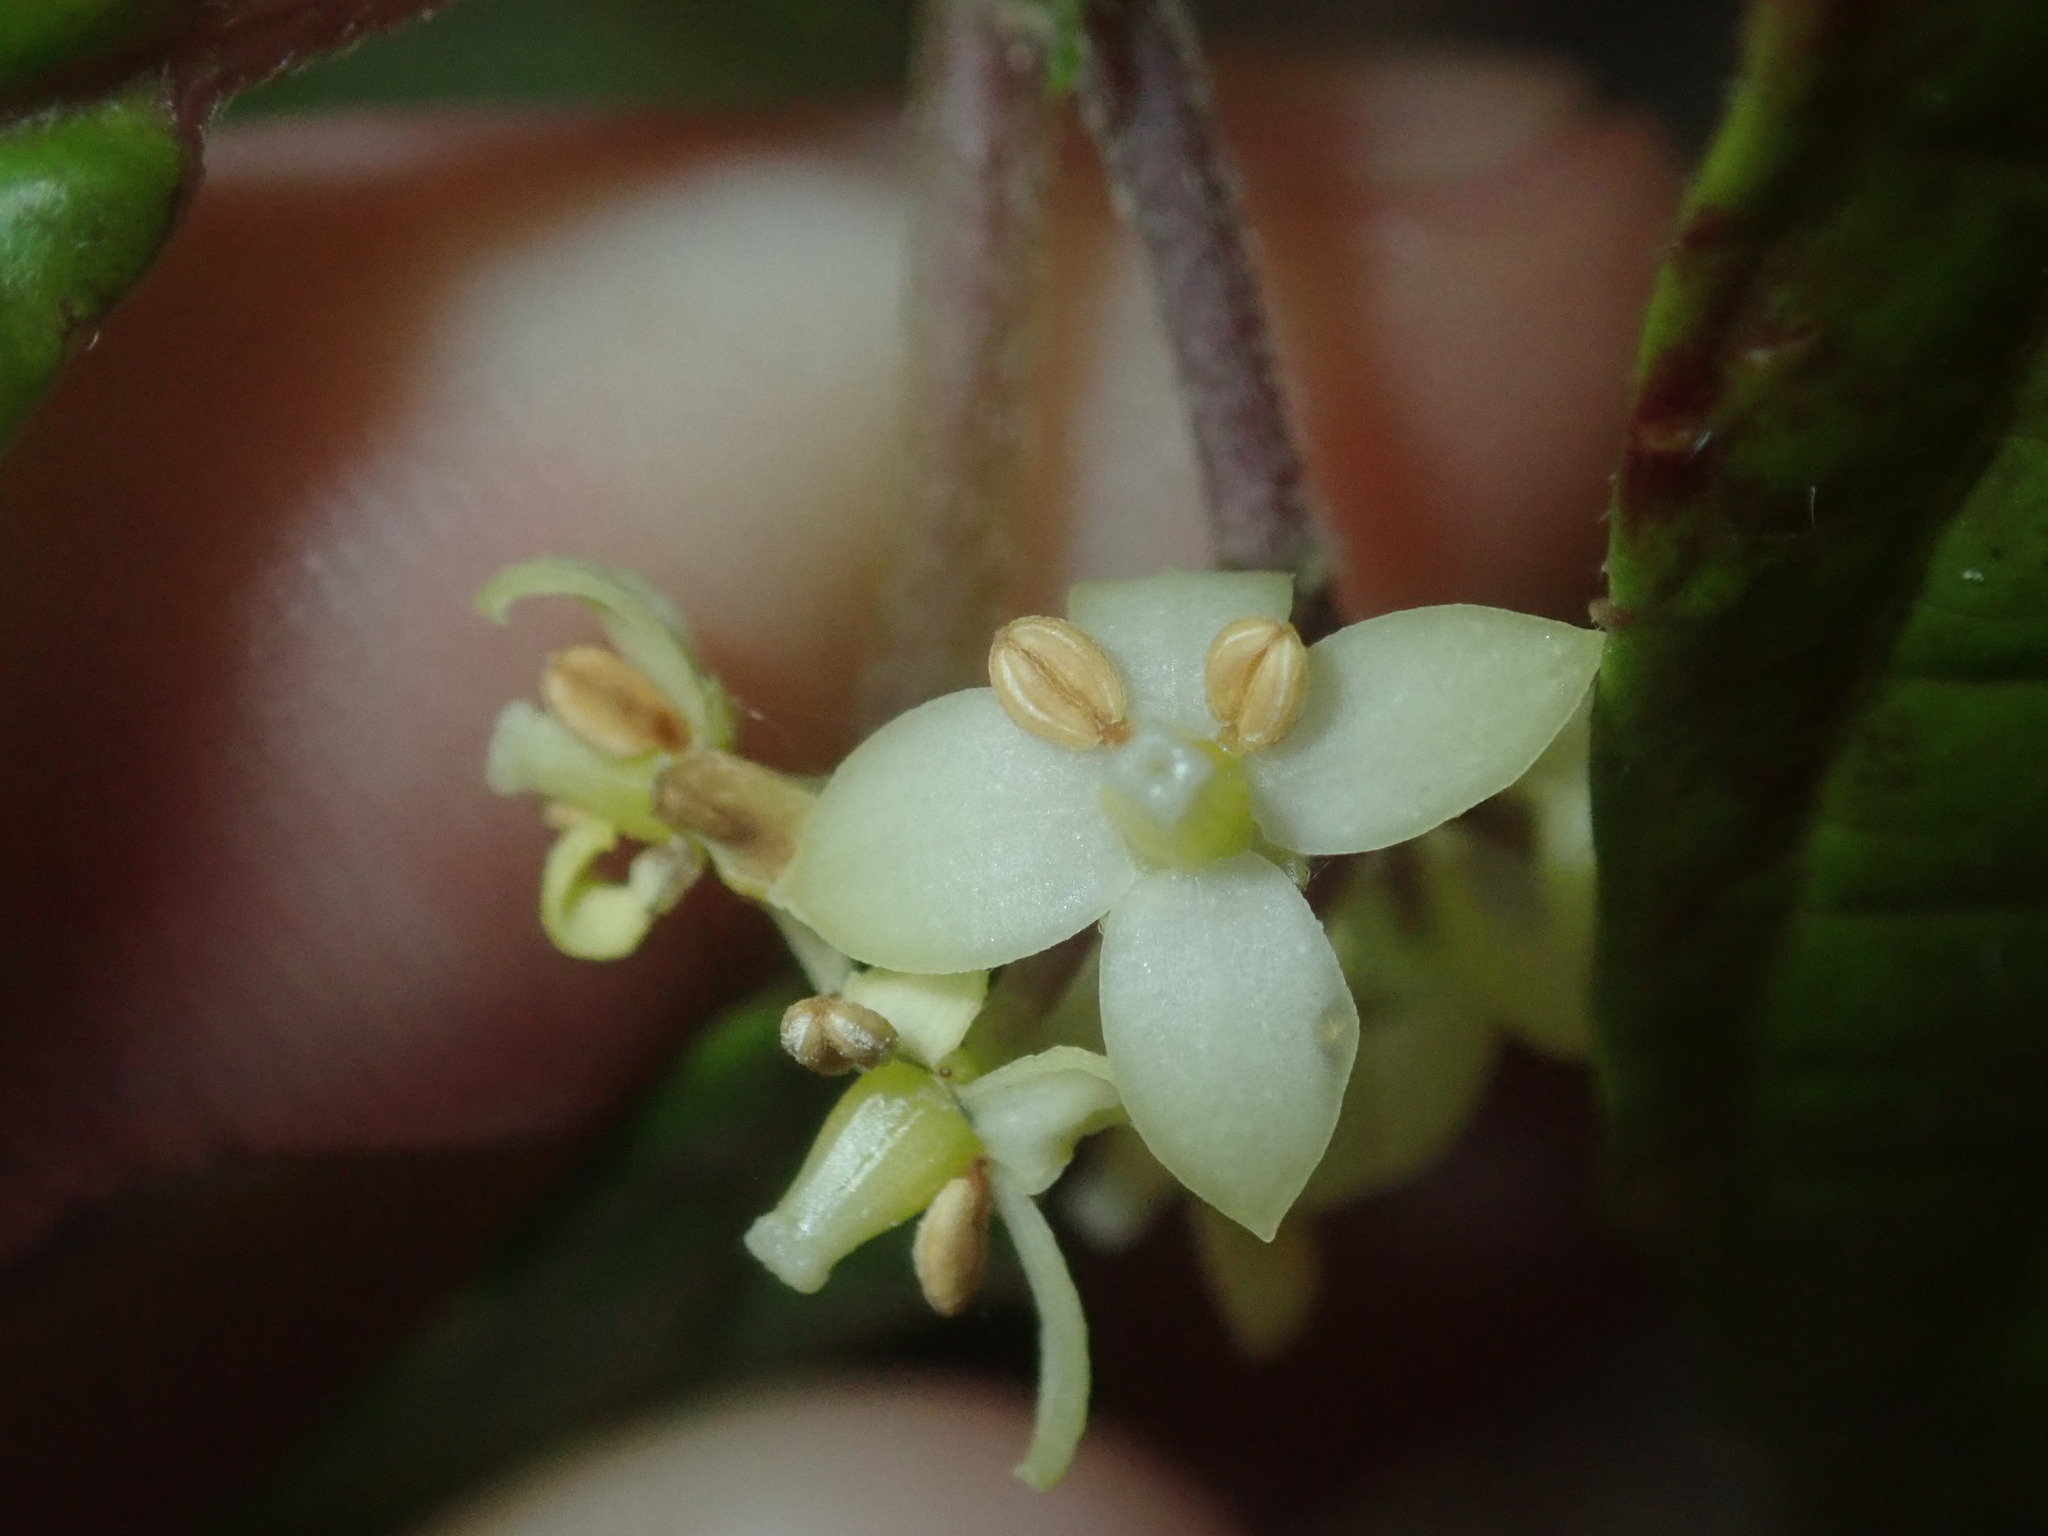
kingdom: Plantae
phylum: Tracheophyta
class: Magnoliopsida
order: Asterales
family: Rousseaceae
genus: Abrophyllum
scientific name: Abrophyllum ornans
